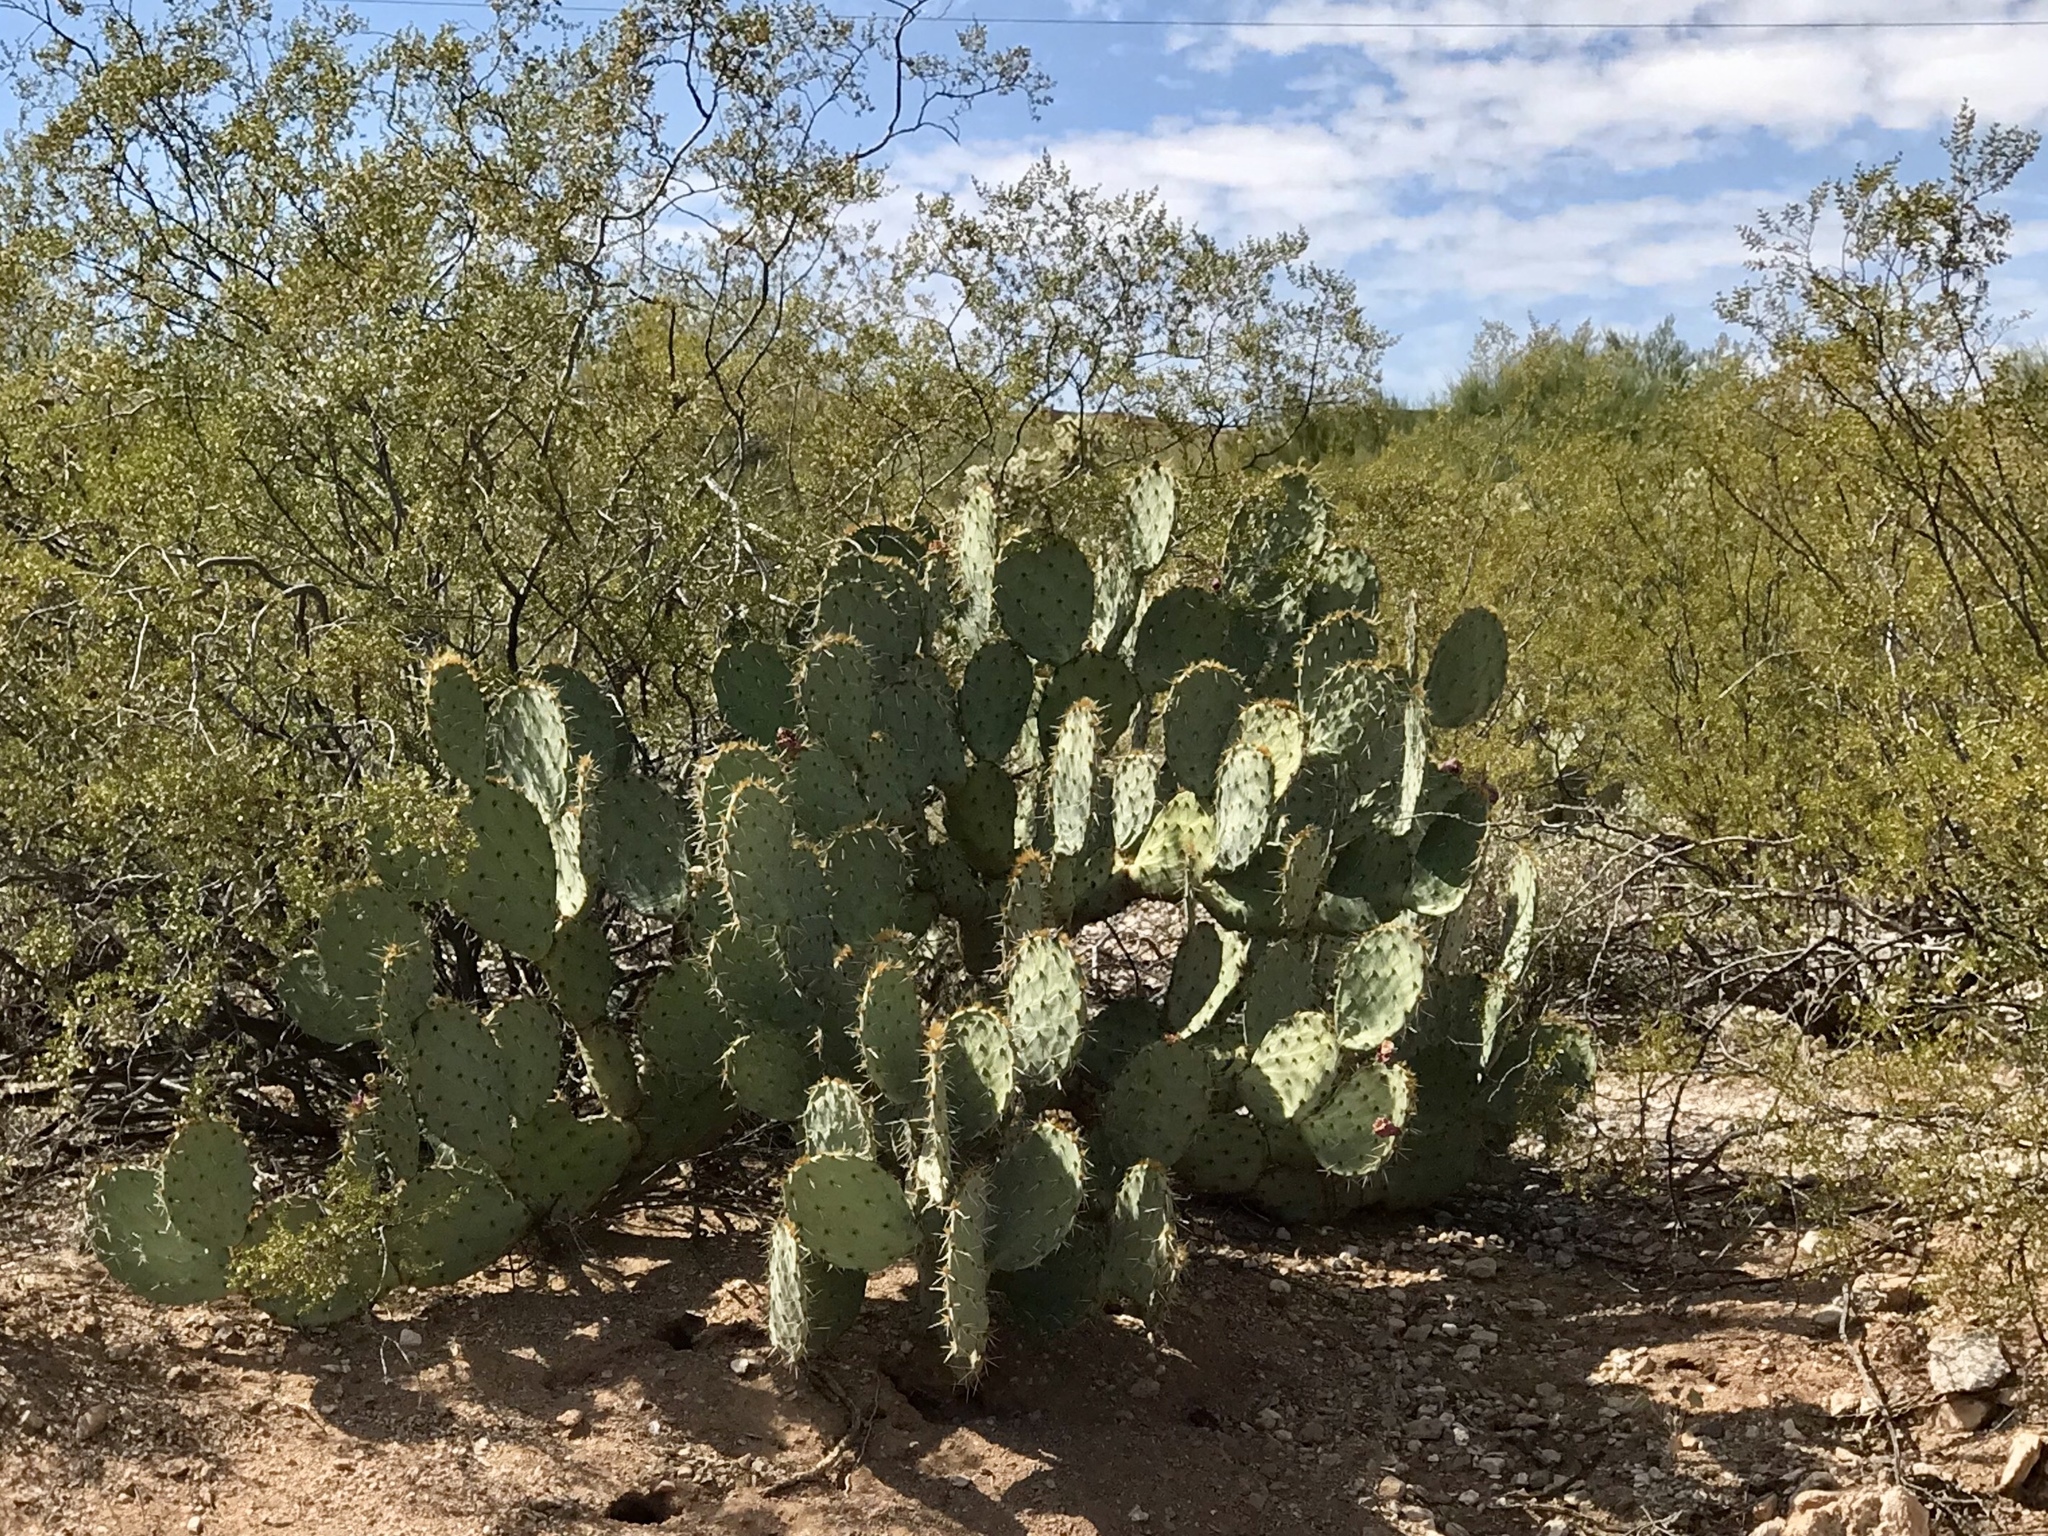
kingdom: Plantae
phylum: Tracheophyta
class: Magnoliopsida
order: Caryophyllales
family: Cactaceae
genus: Opuntia
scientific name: Opuntia engelmannii
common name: Cactus-apple
